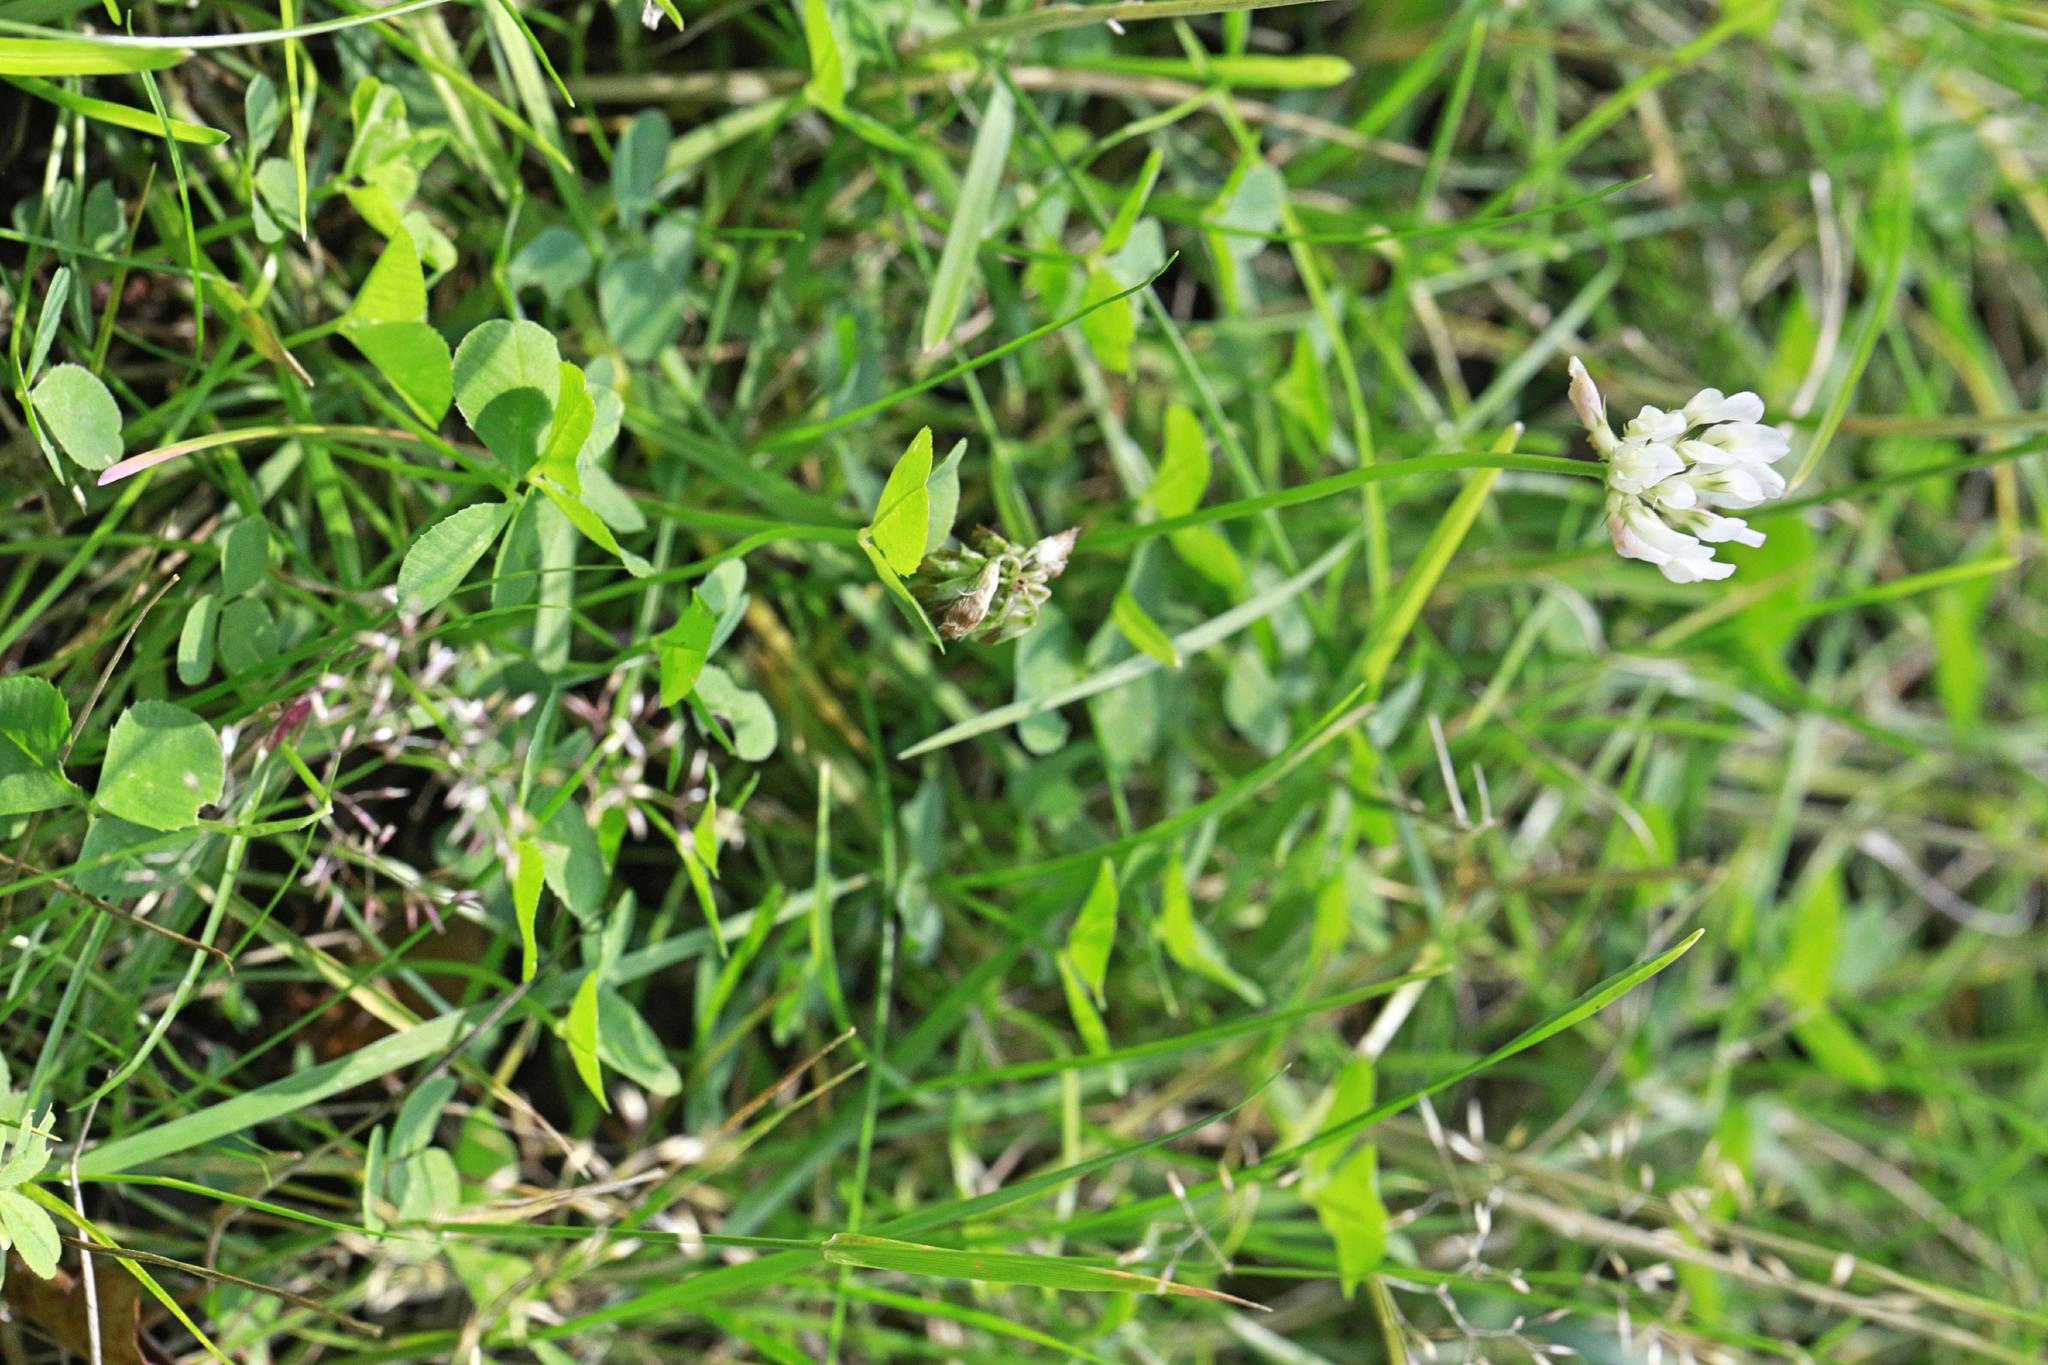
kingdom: Plantae
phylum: Tracheophyta
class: Magnoliopsida
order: Fabales
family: Fabaceae
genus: Trifolium
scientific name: Trifolium repens
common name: White clover
